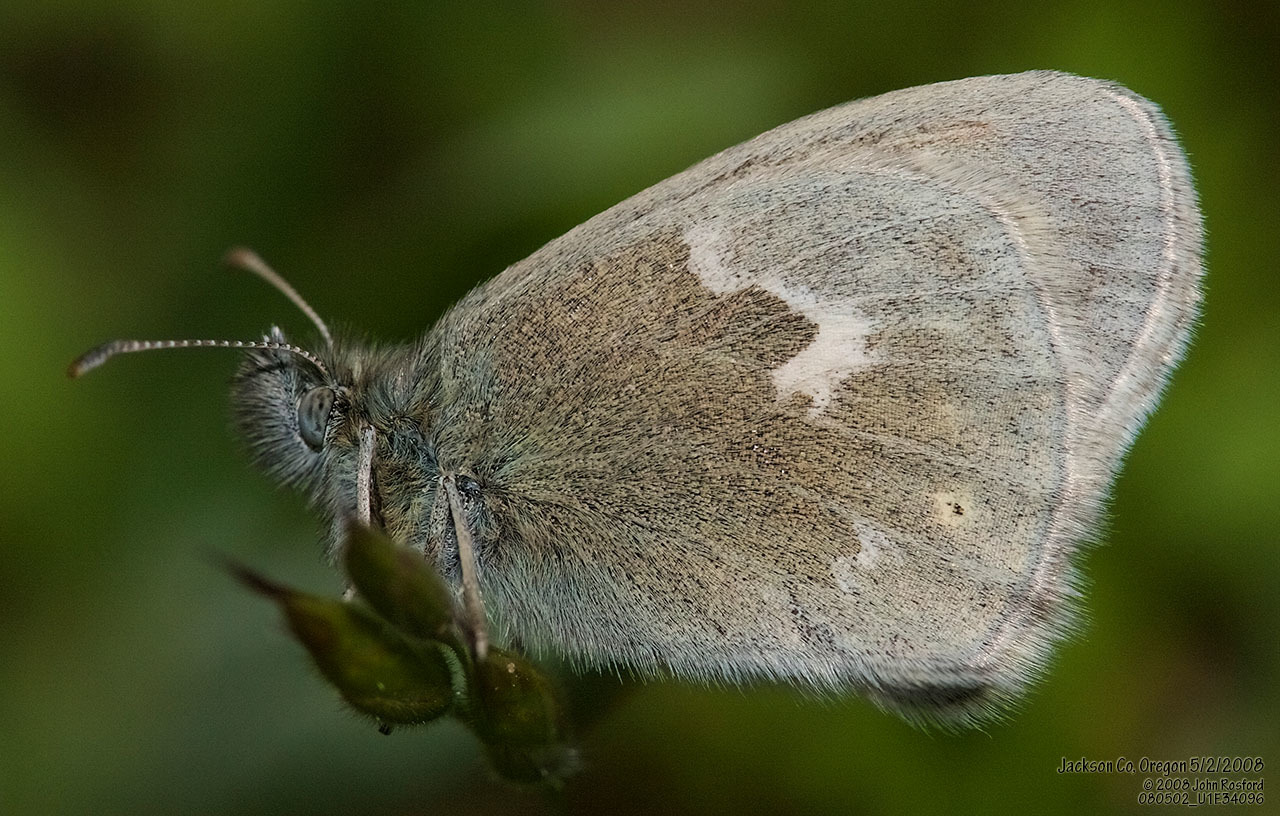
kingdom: Animalia
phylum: Arthropoda
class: Insecta
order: Lepidoptera
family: Nymphalidae
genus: Coenonympha
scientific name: Coenonympha california
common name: Common ringlet
